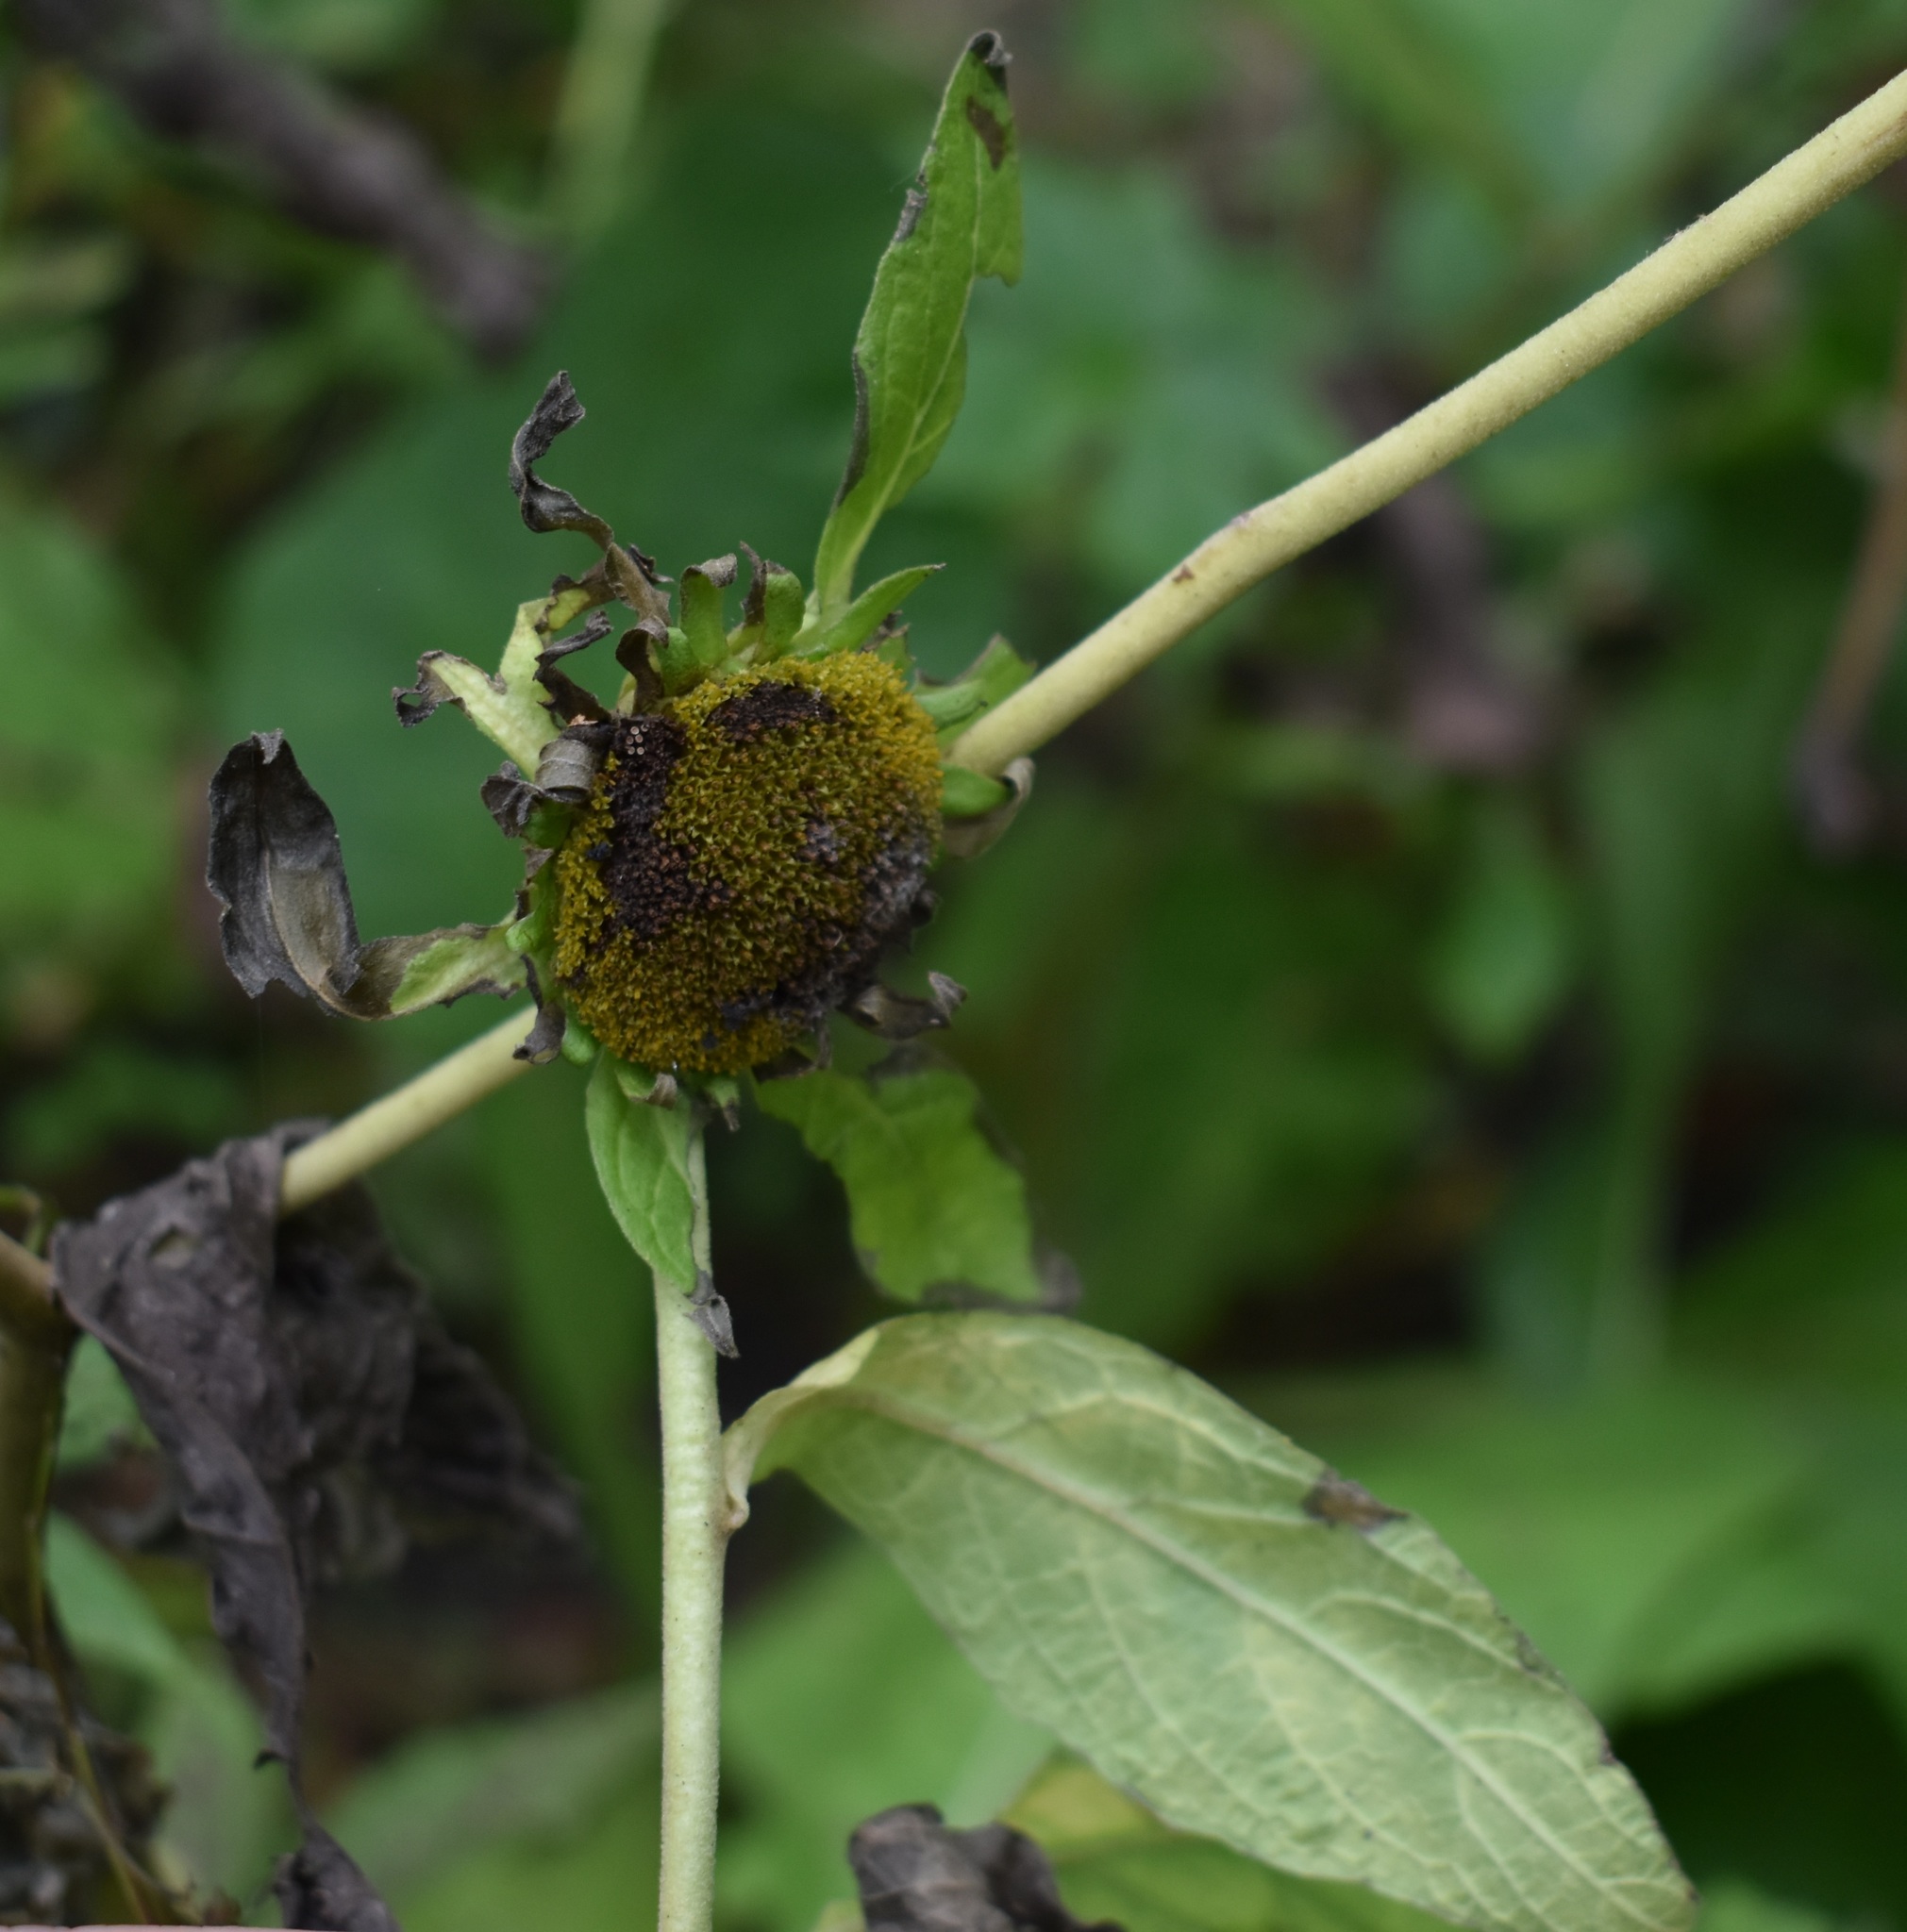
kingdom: Plantae
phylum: Tracheophyta
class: Magnoliopsida
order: Asterales
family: Asteraceae
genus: Carpesium
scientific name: Carpesium macrocephalum
